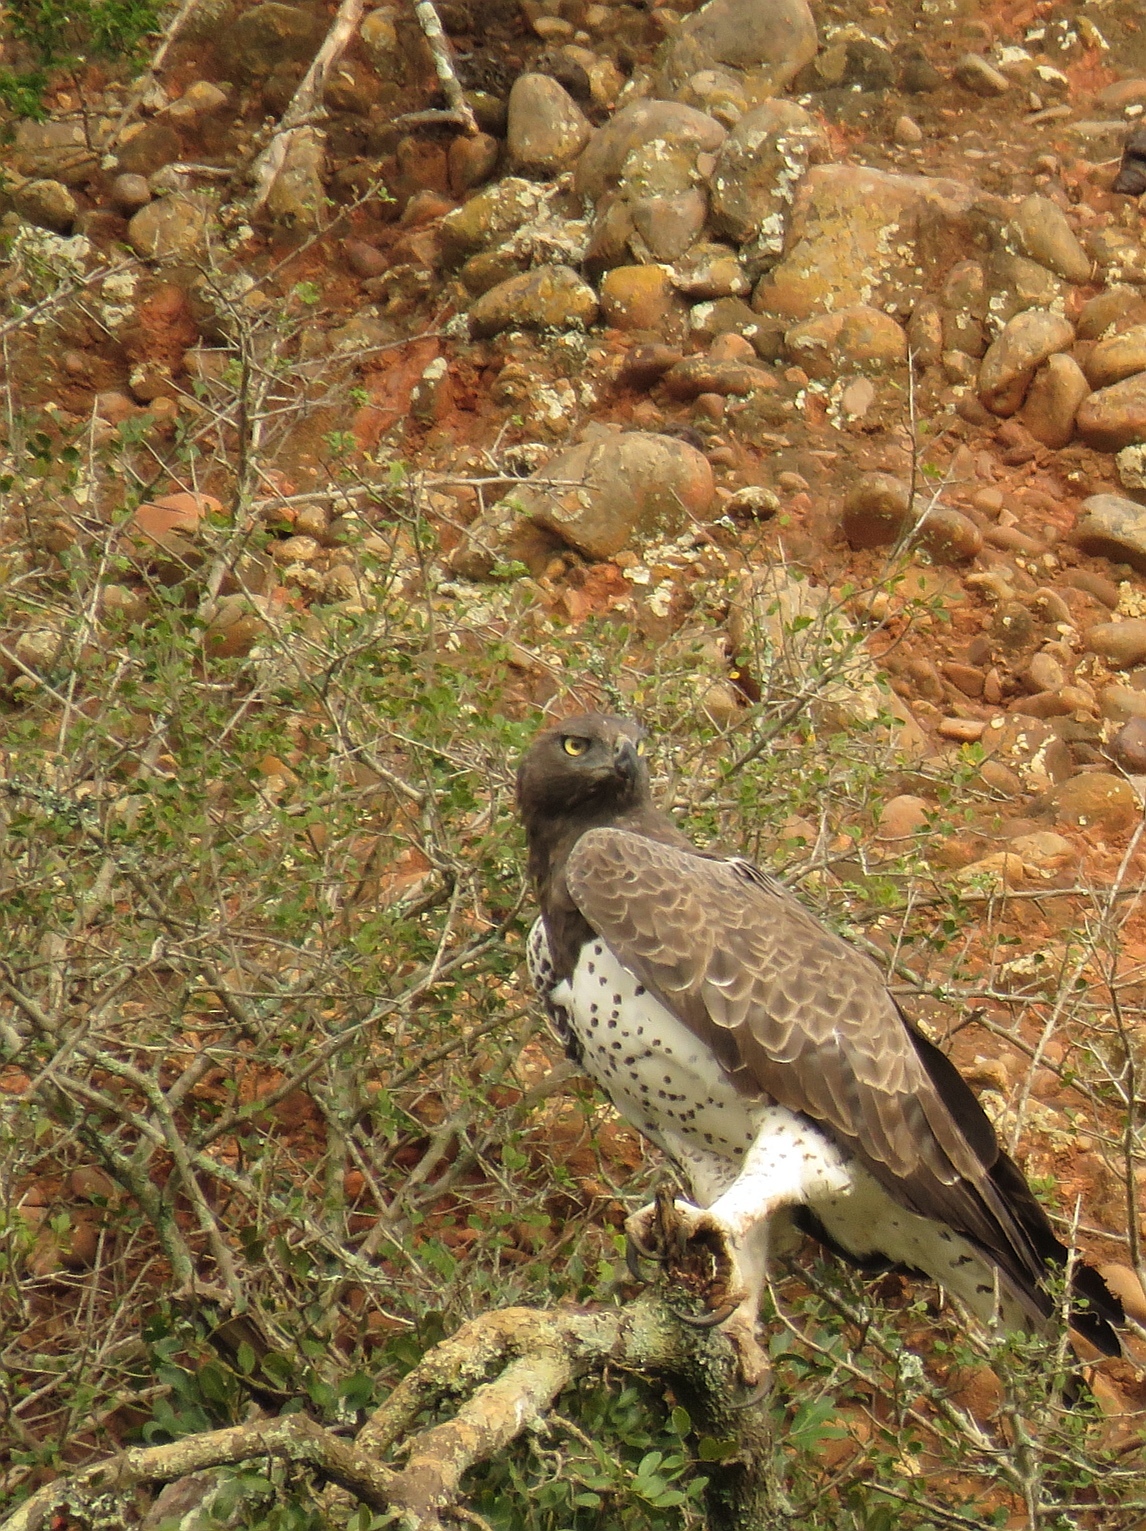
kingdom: Animalia
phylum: Chordata
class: Aves
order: Accipitriformes
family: Accipitridae
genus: Polemaetus
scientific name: Polemaetus bellicosus
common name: Martial eagle
